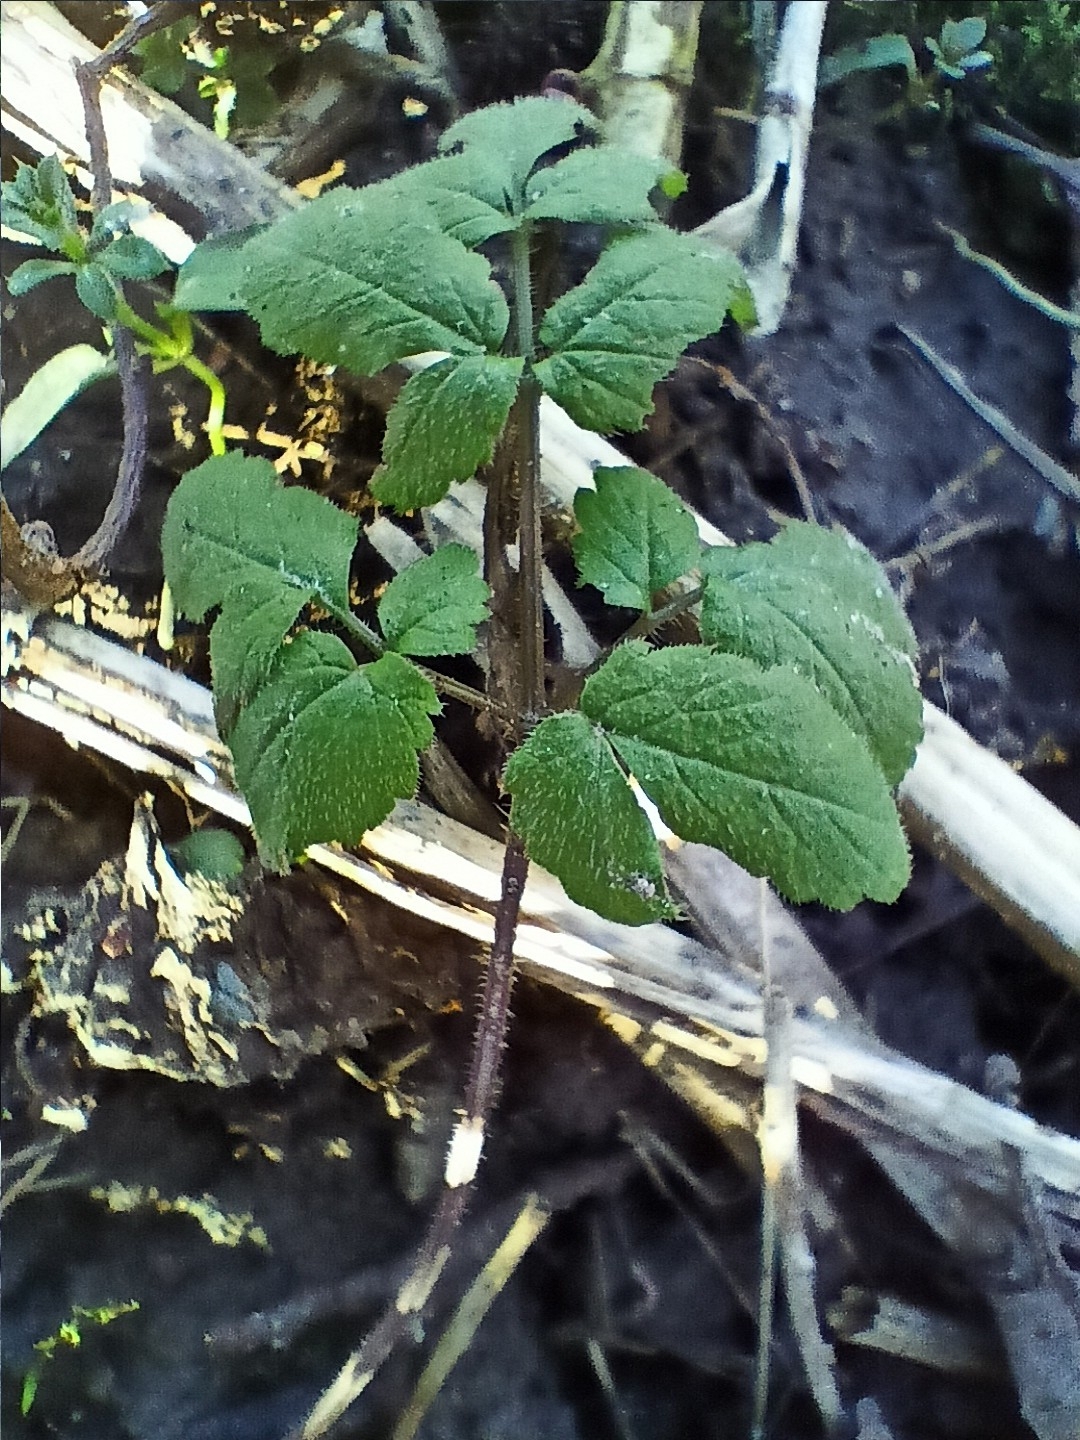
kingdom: Plantae
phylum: Tracheophyta
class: Magnoliopsida
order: Apiales
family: Apiaceae
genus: Chaerophyllum
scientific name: Chaerophyllum aromaticum
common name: Broadleaf chervil
